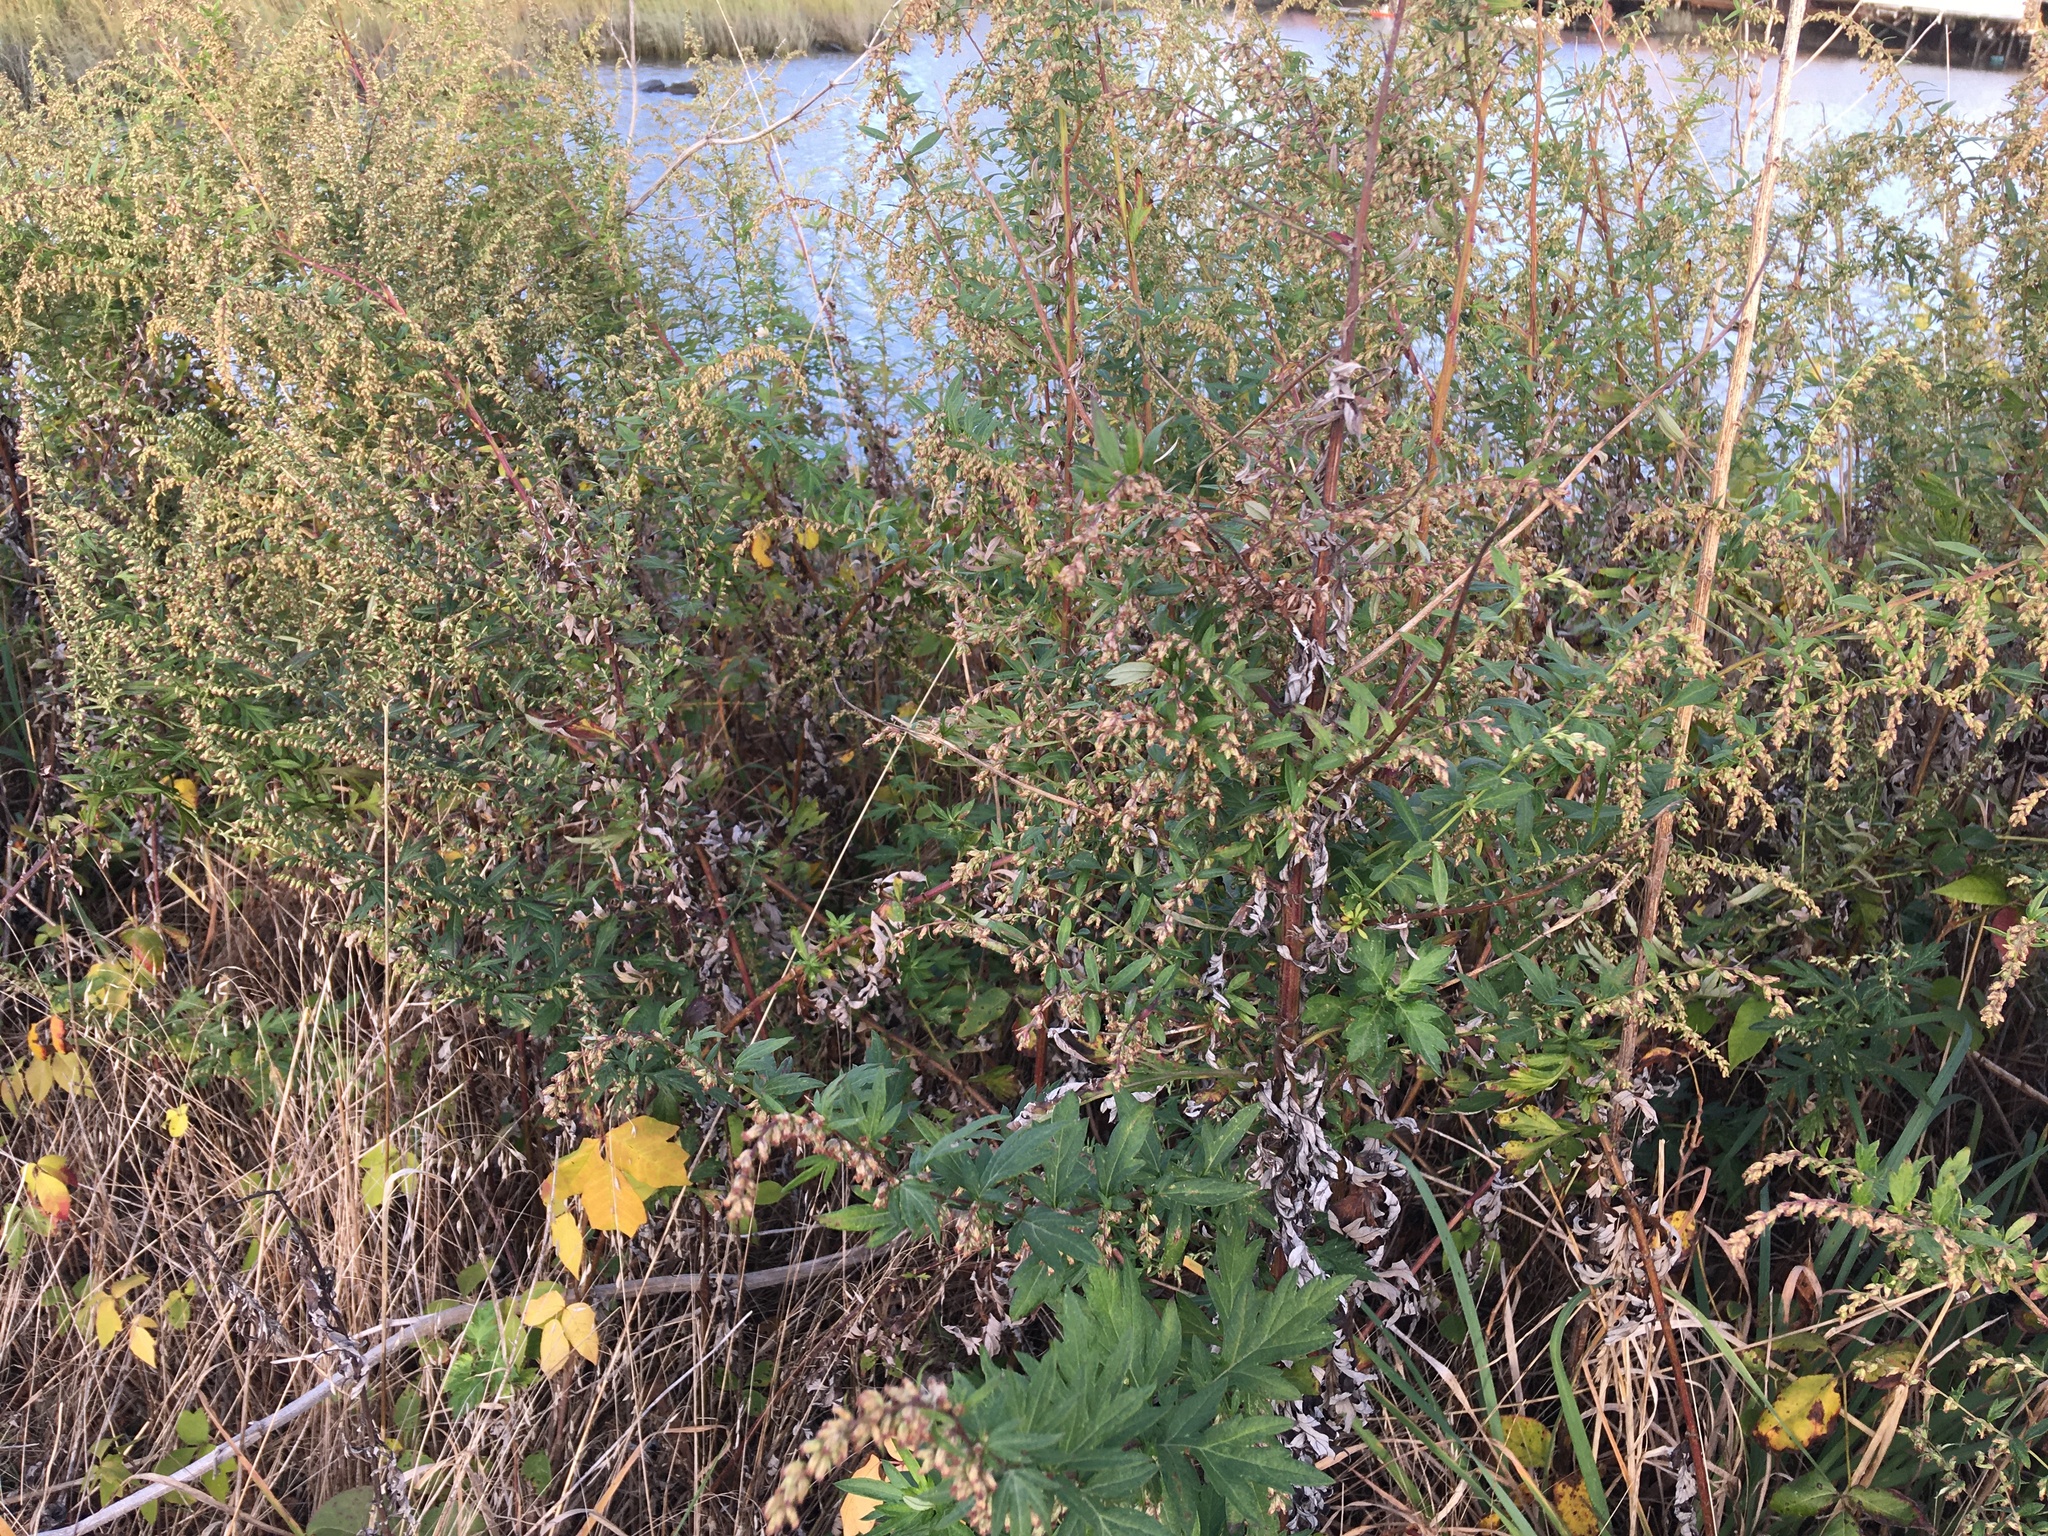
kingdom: Plantae
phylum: Tracheophyta
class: Magnoliopsida
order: Asterales
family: Asteraceae
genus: Artemisia
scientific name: Artemisia vulgaris
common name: Mugwort
